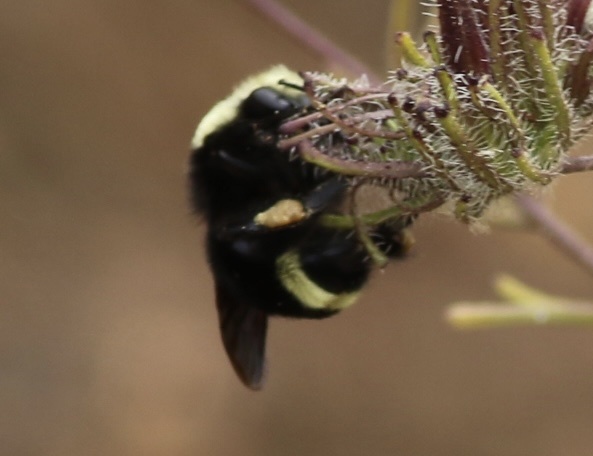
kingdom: Animalia
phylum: Arthropoda
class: Insecta
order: Hymenoptera
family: Apidae
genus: Bombus
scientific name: Bombus vosnesenskii
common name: Vosnesensky bumble bee
